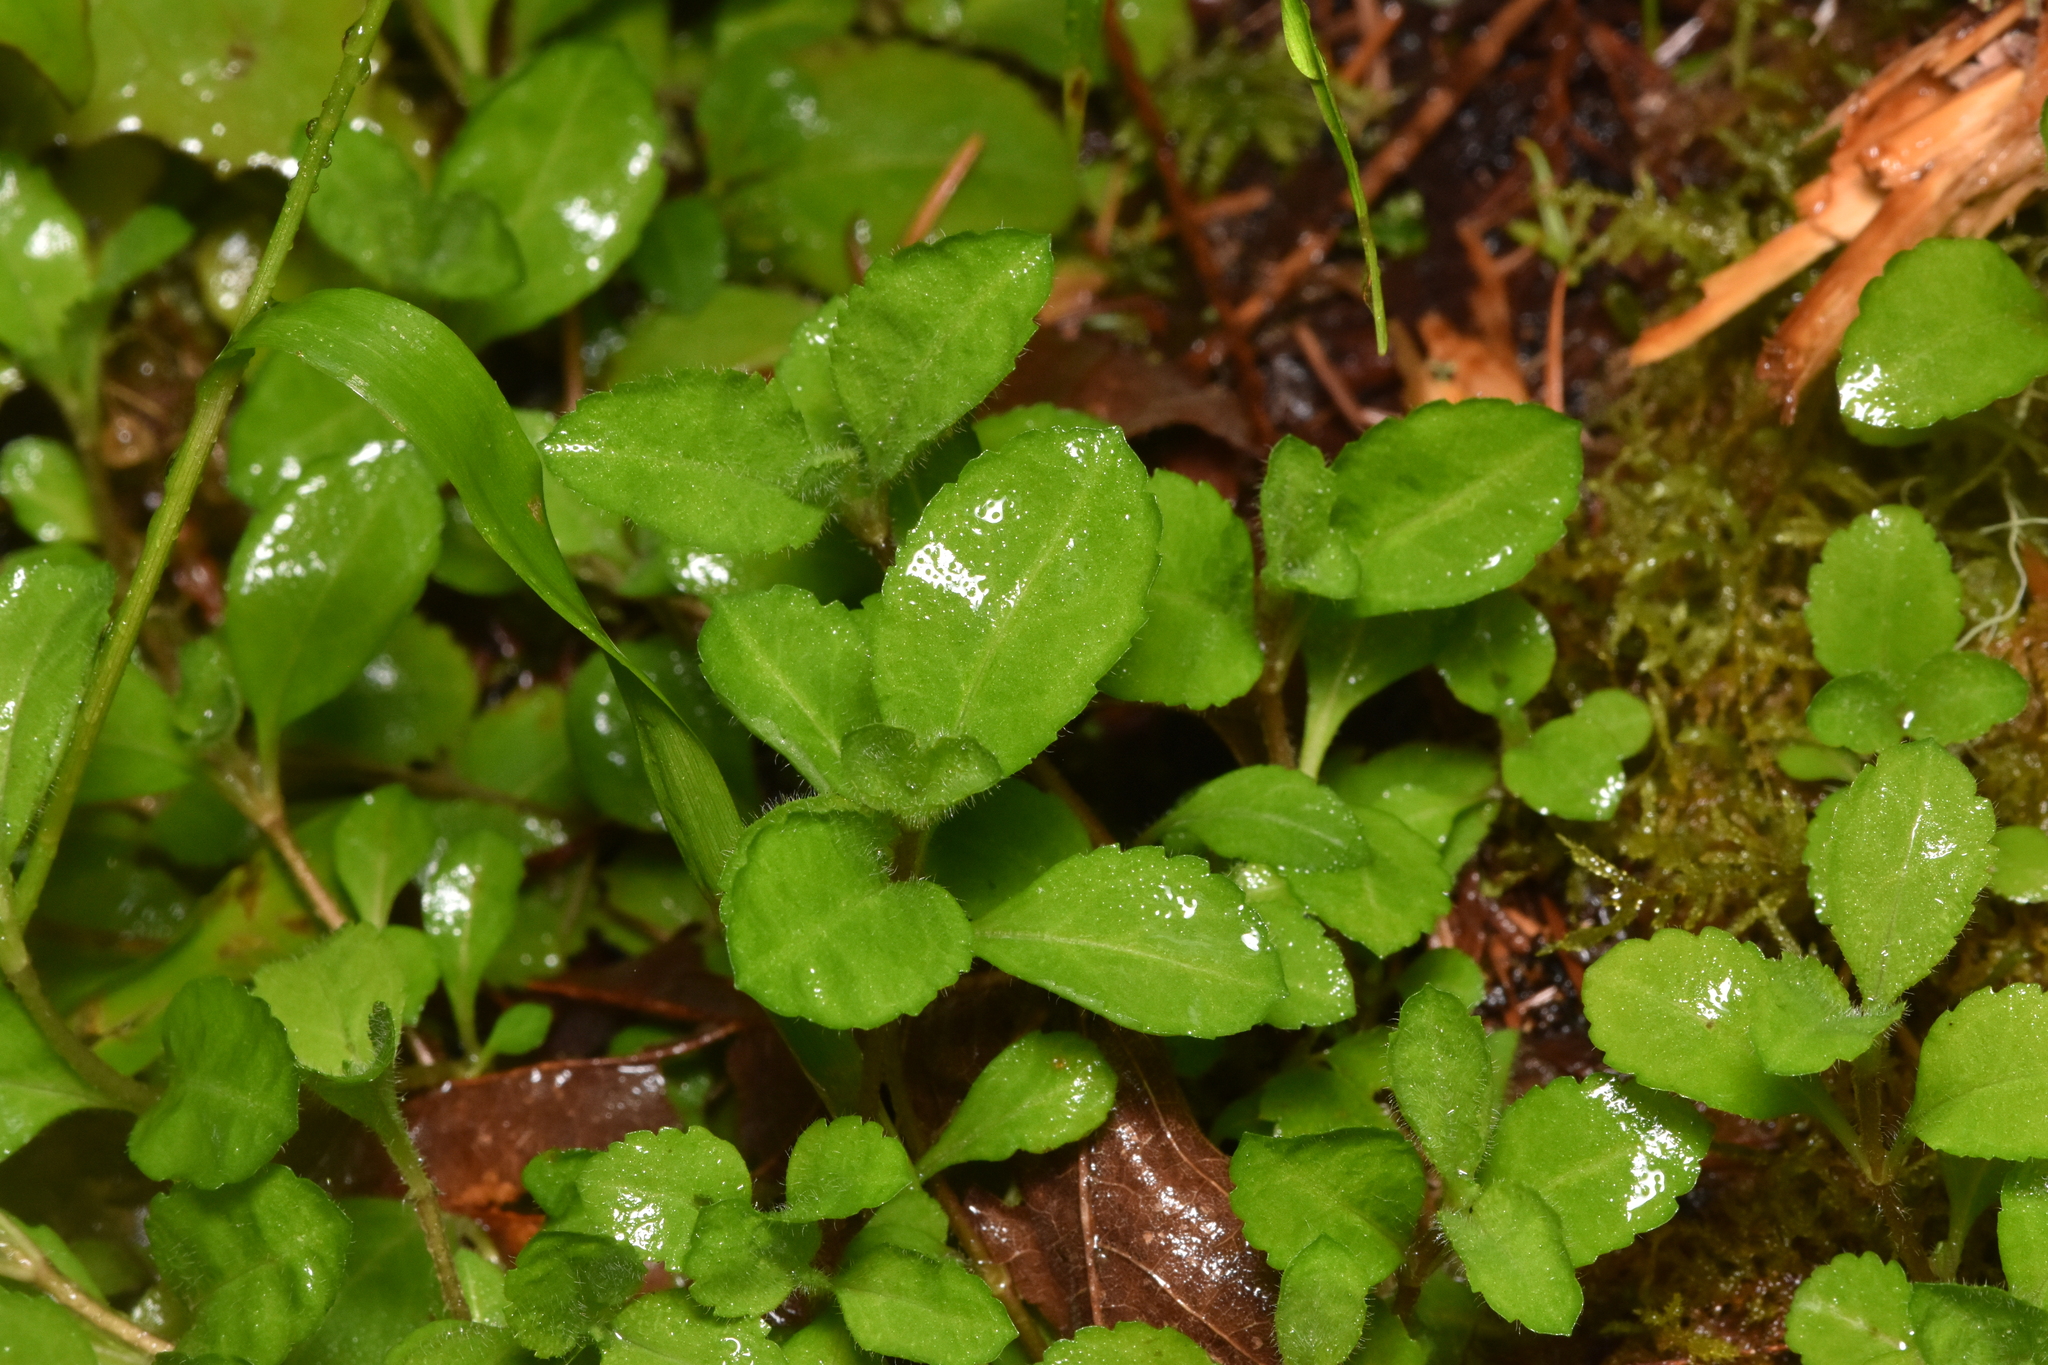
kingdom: Plantae
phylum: Tracheophyta
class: Magnoliopsida
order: Lamiales
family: Plantaginaceae
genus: Veronica
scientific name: Veronica officinalis
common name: Common speedwell
